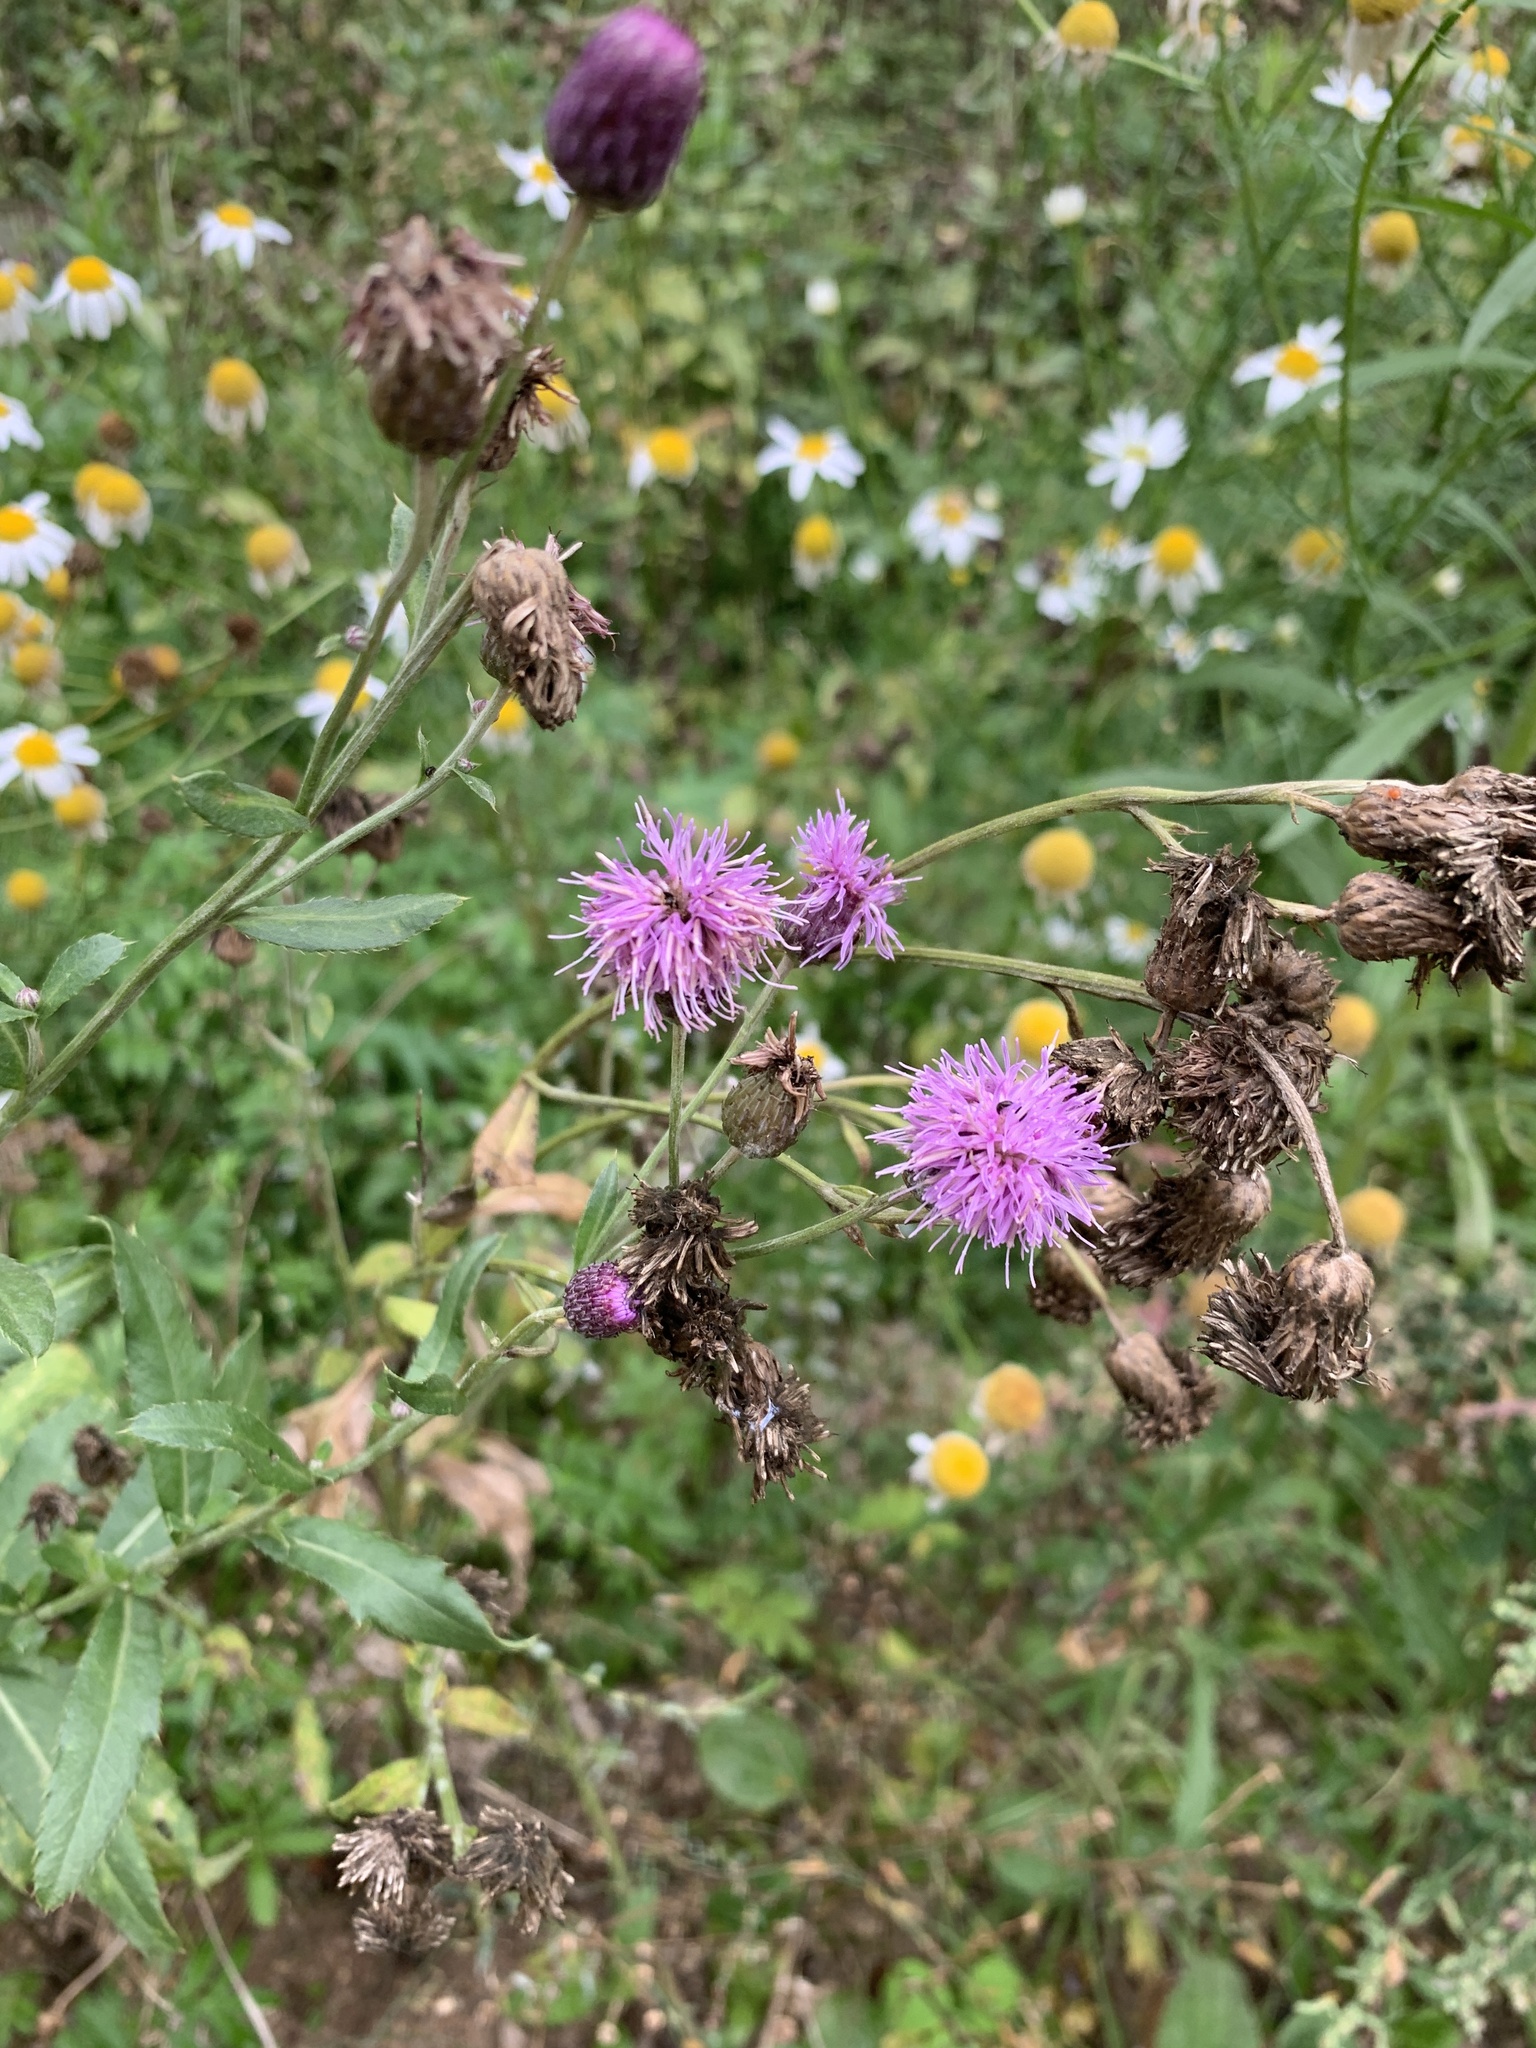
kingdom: Plantae
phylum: Tracheophyta
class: Magnoliopsida
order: Asterales
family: Asteraceae
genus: Cirsium
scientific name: Cirsium arvense
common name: Creeping thistle
